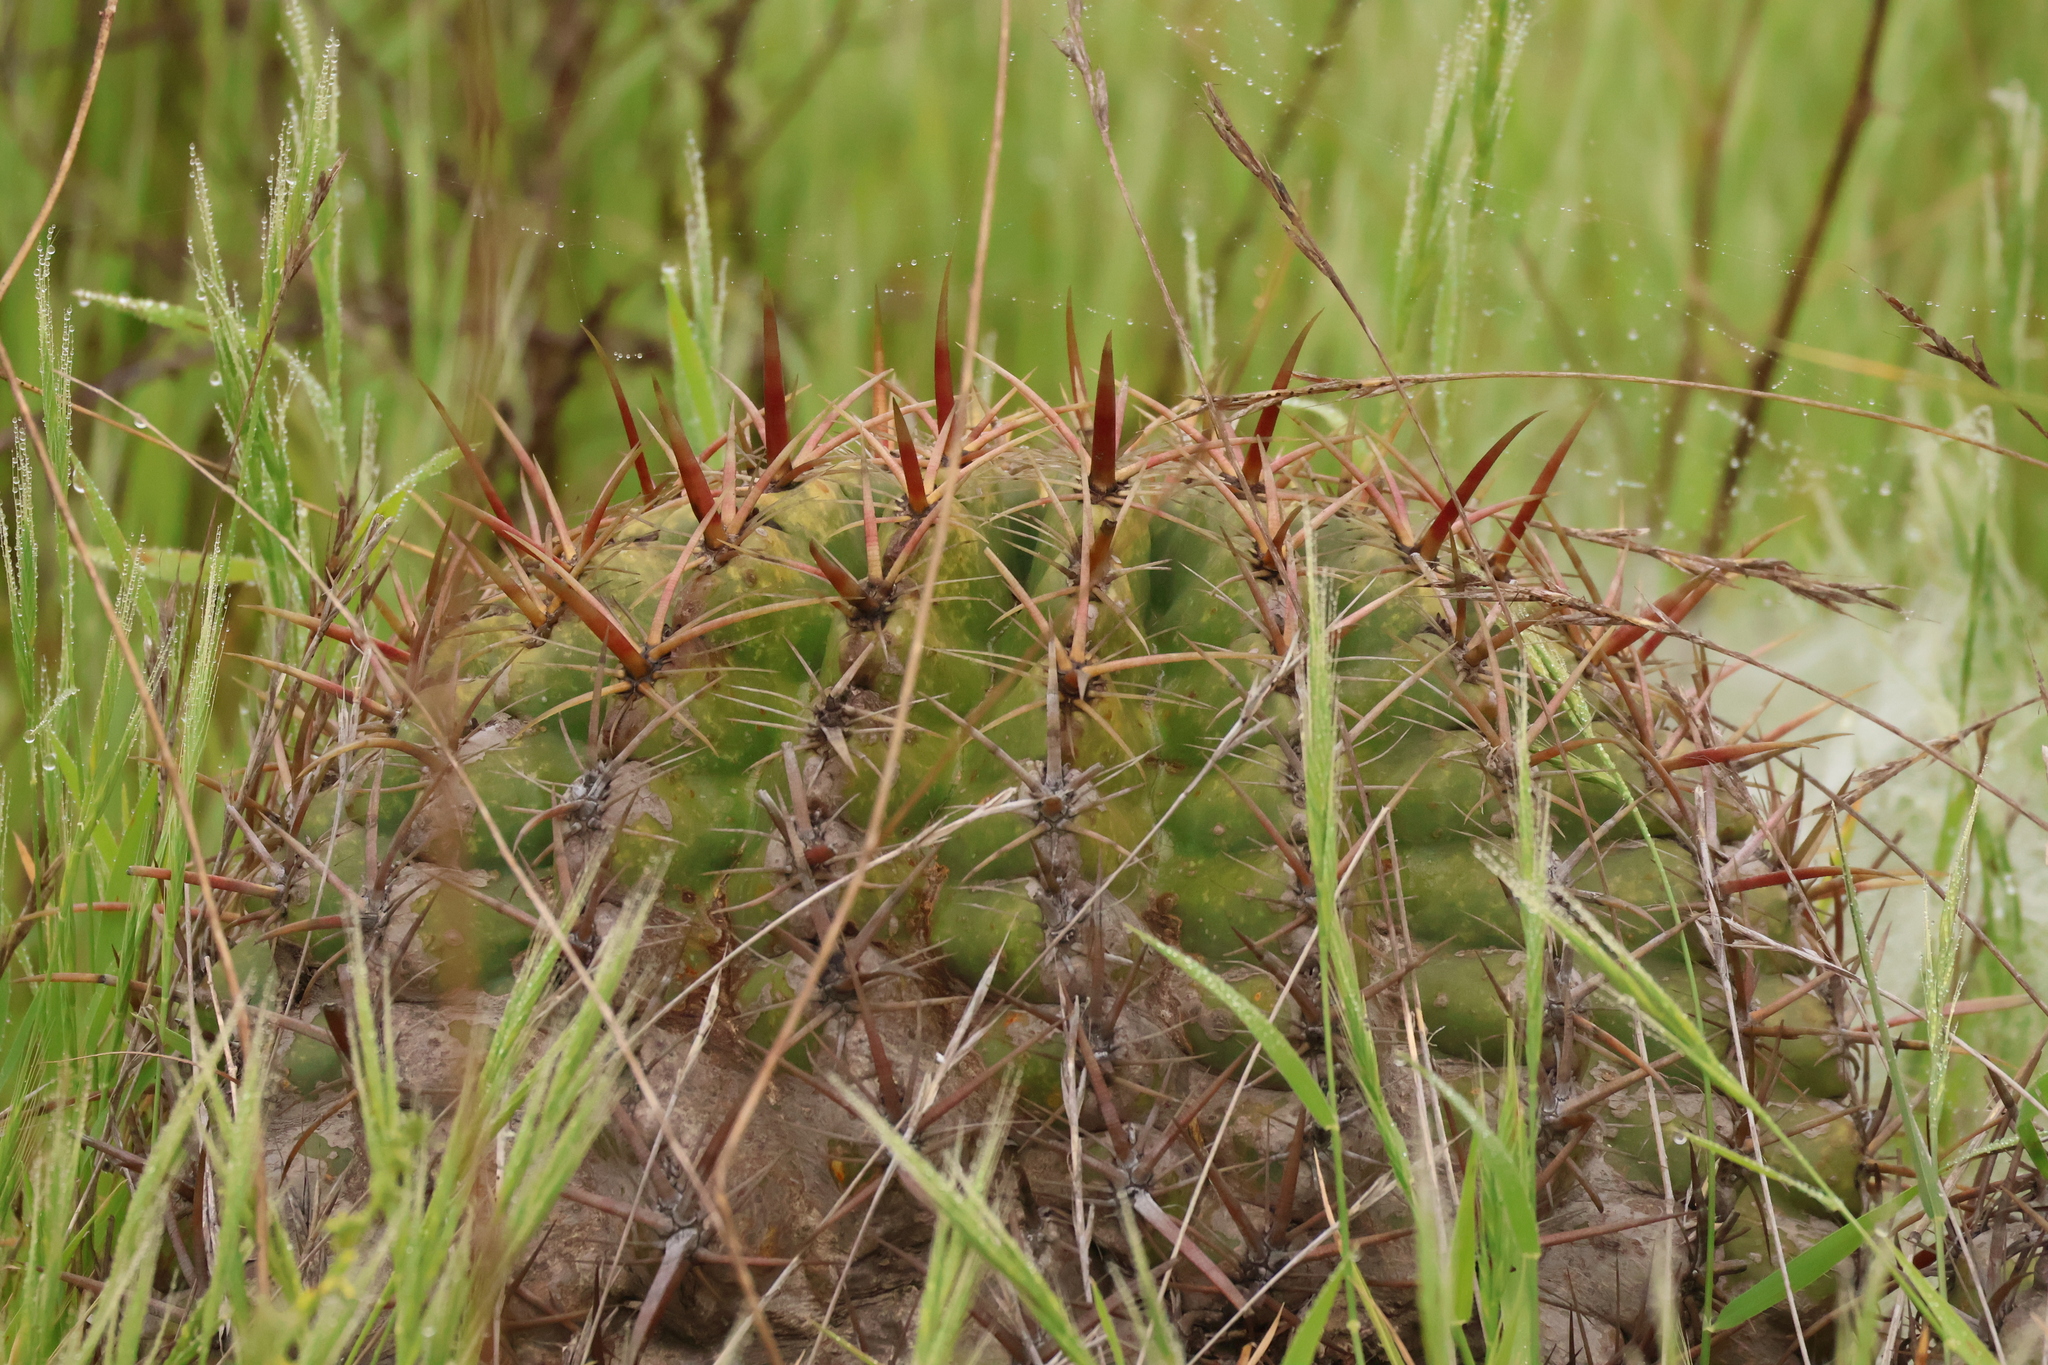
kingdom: Plantae
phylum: Tracheophyta
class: Magnoliopsida
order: Caryophyllales
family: Cactaceae
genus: Ferocactus
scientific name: Ferocactus viridescens
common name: San diego barrel cactus
